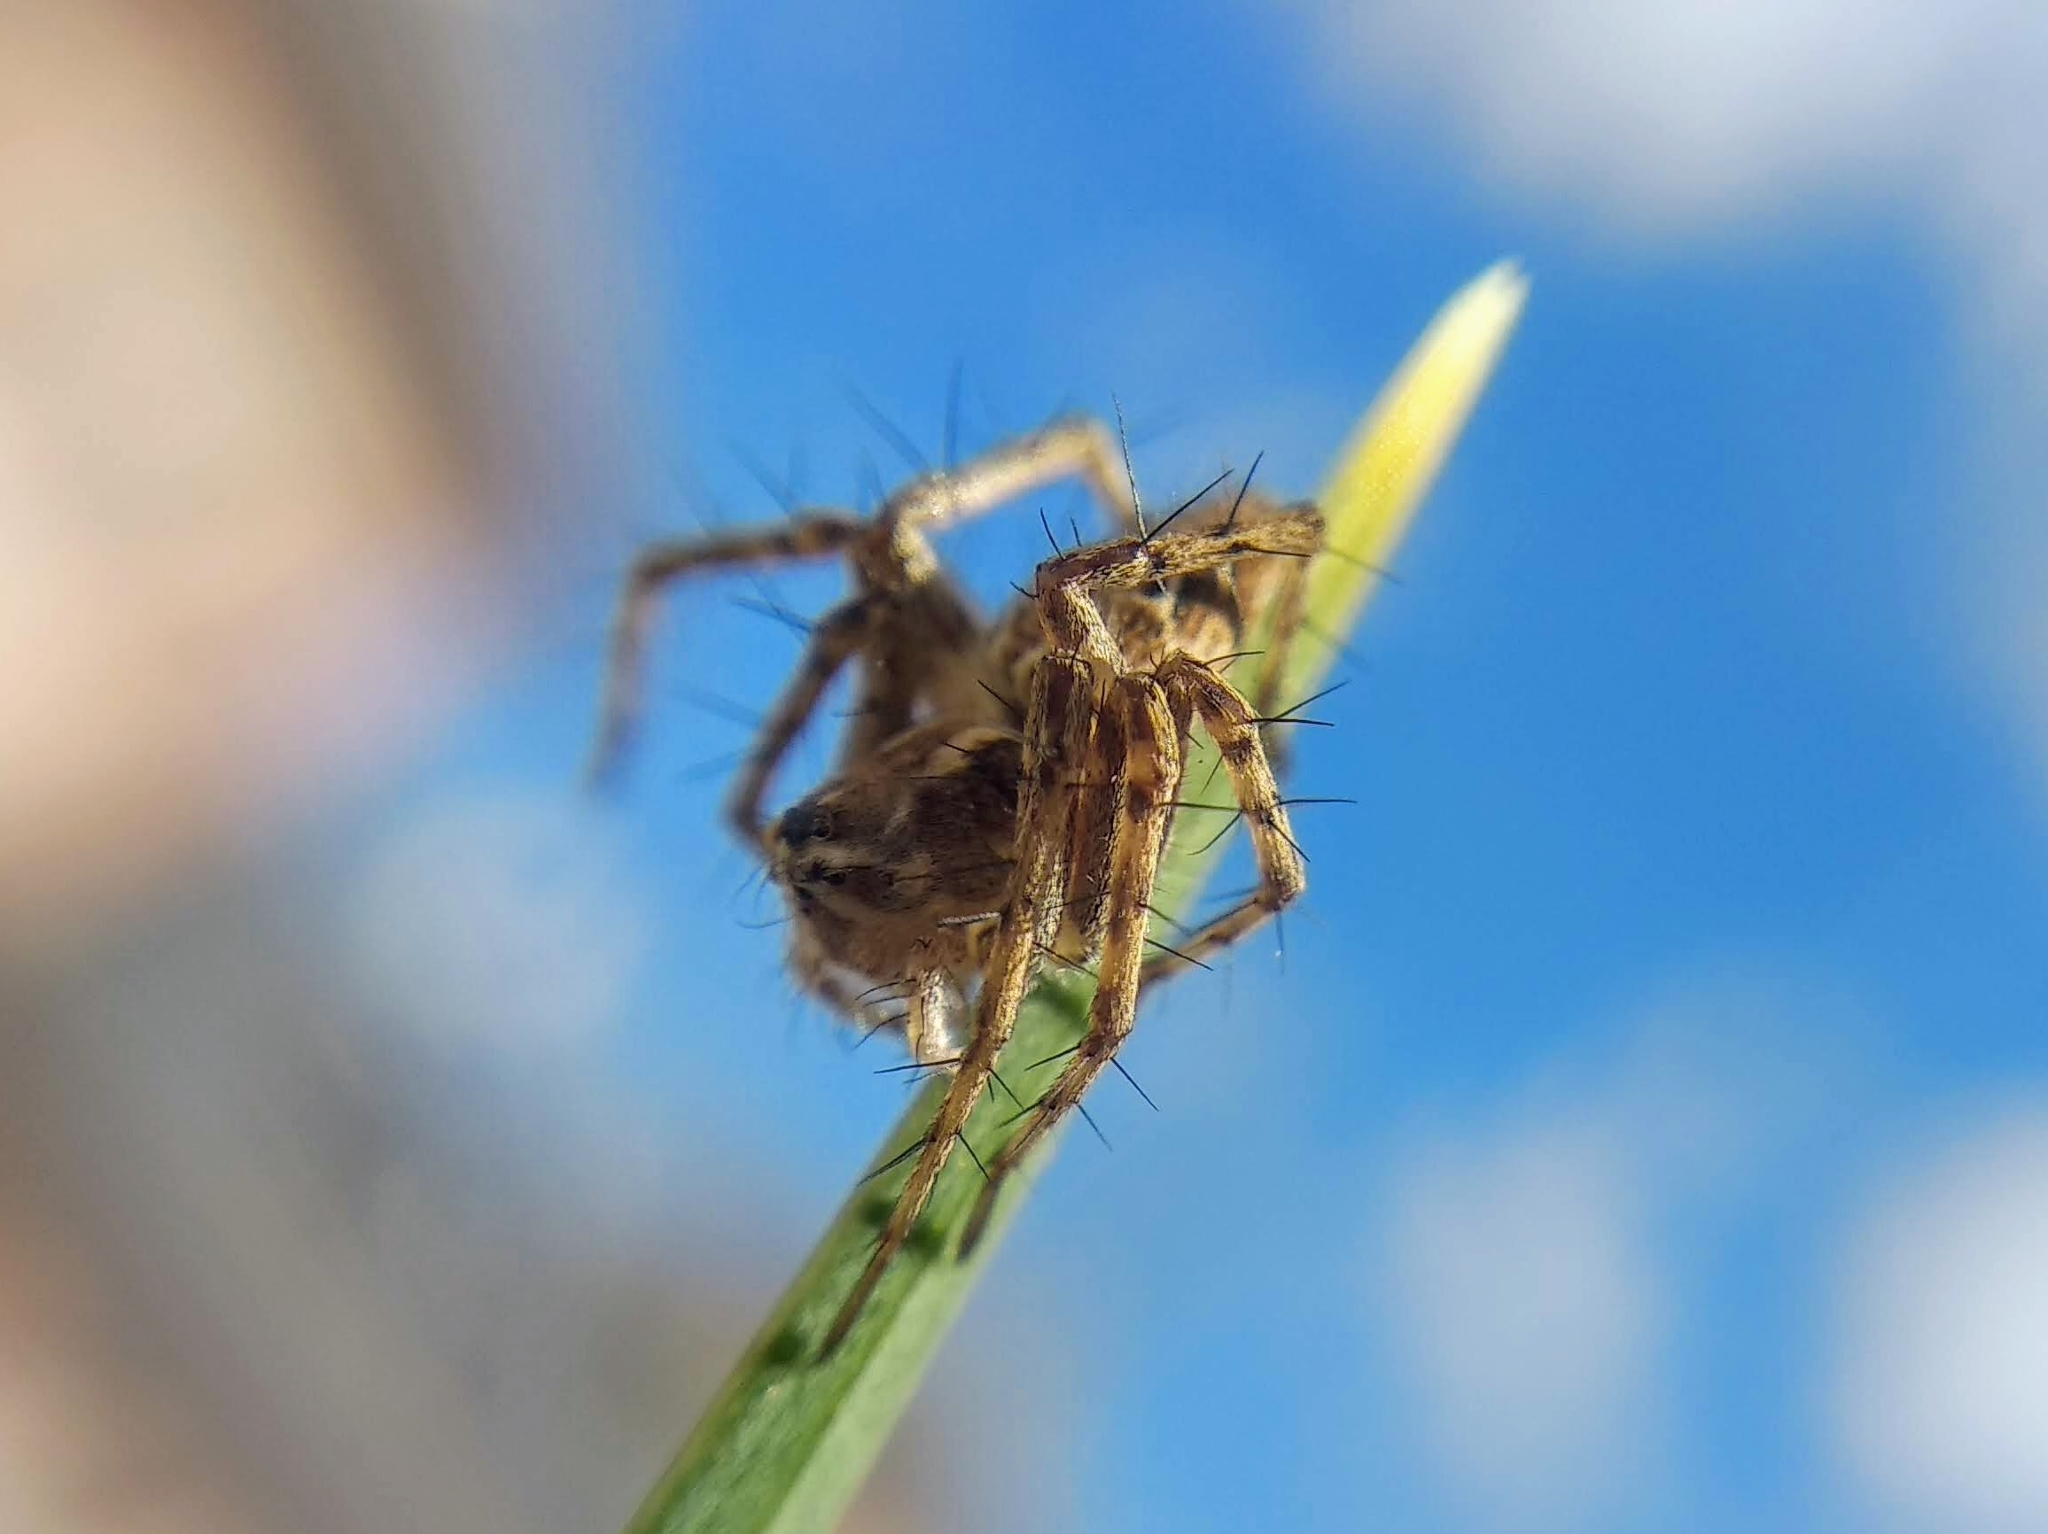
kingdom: Animalia
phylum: Arthropoda
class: Arachnida
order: Araneae
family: Oxyopidae
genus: Oxyopes
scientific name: Oxyopes heterophthalmus
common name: Lynx spider
